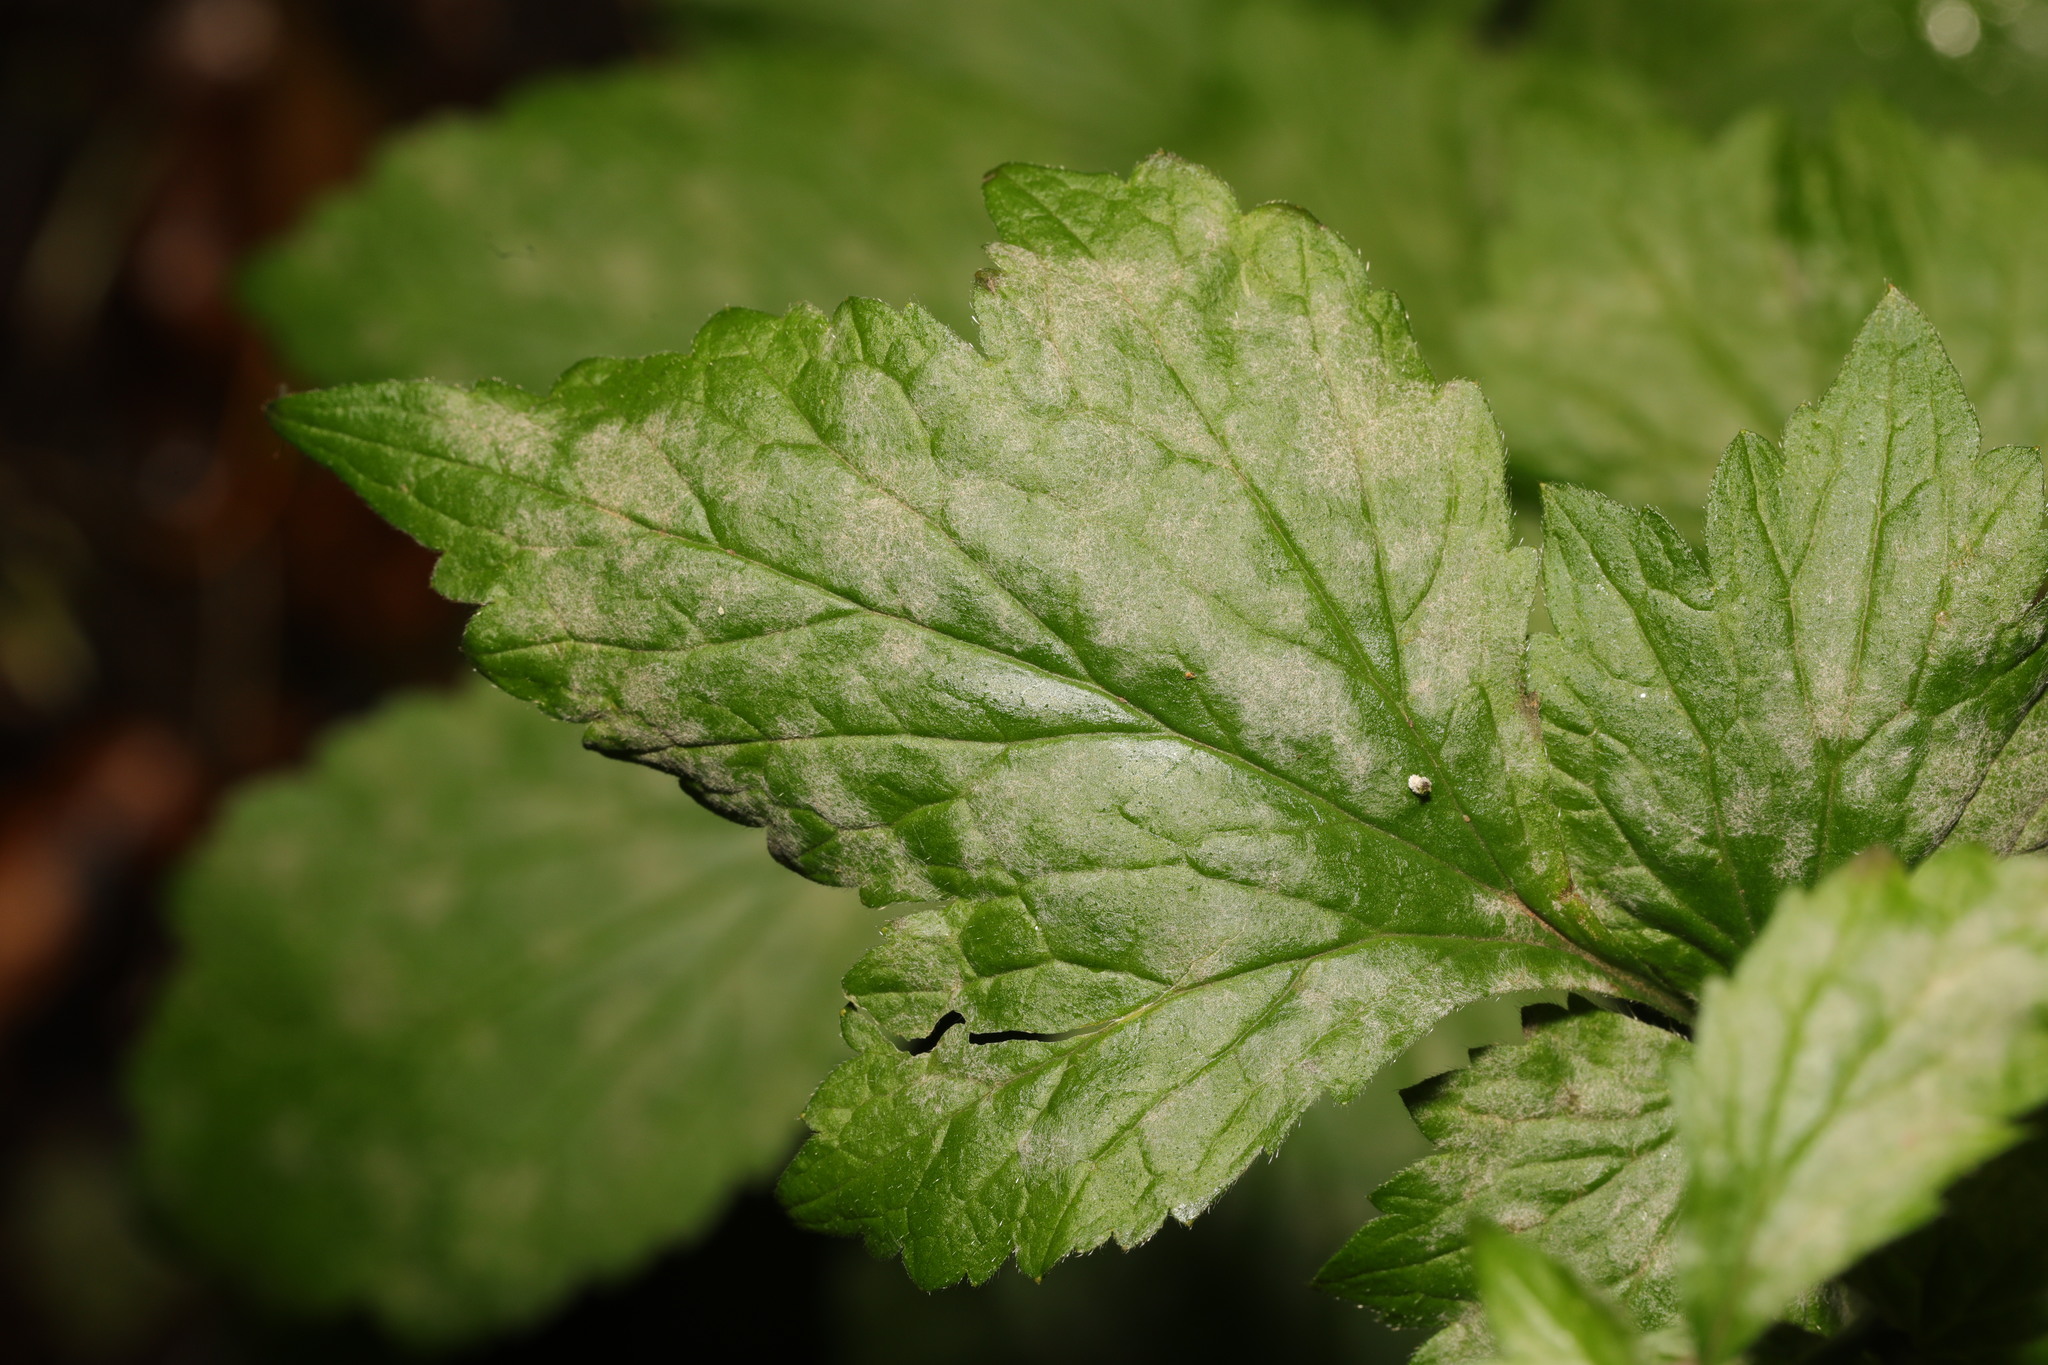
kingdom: Fungi
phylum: Ascomycota
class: Leotiomycetes
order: Helotiales
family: Erysiphaceae
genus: Podosphaera
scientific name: Podosphaera aphanis
